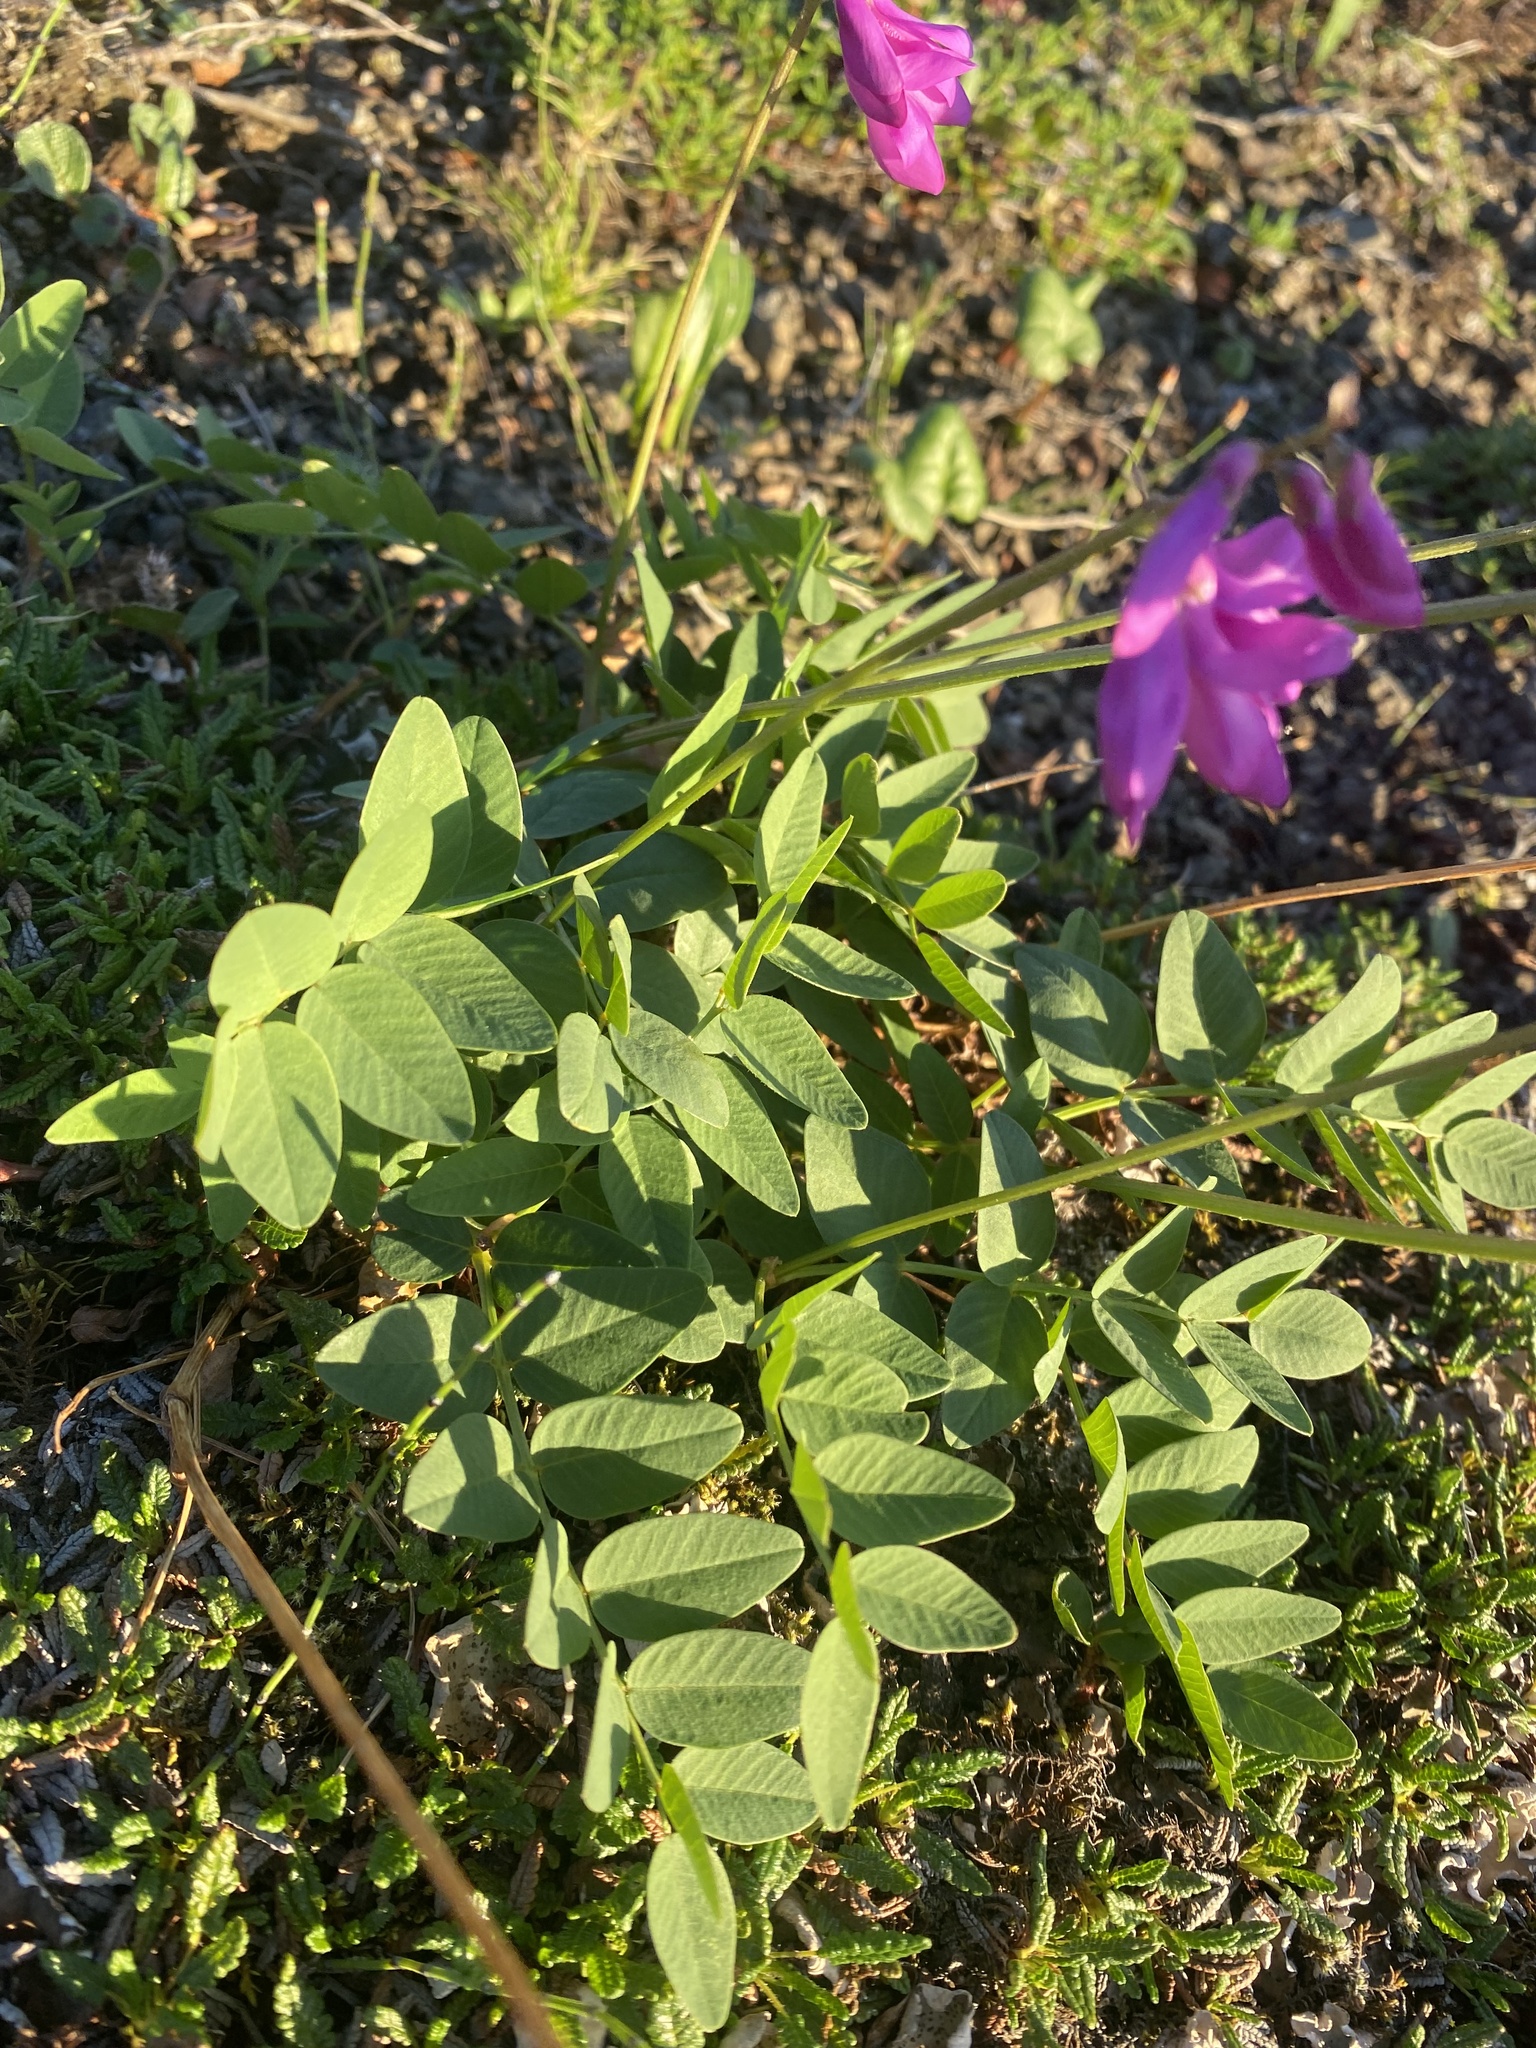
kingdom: Plantae
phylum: Tracheophyta
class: Magnoliopsida
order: Fabales
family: Fabaceae
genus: Hedysarum
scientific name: Hedysarum hedysaroides
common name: Alpine french-honeysuckle
